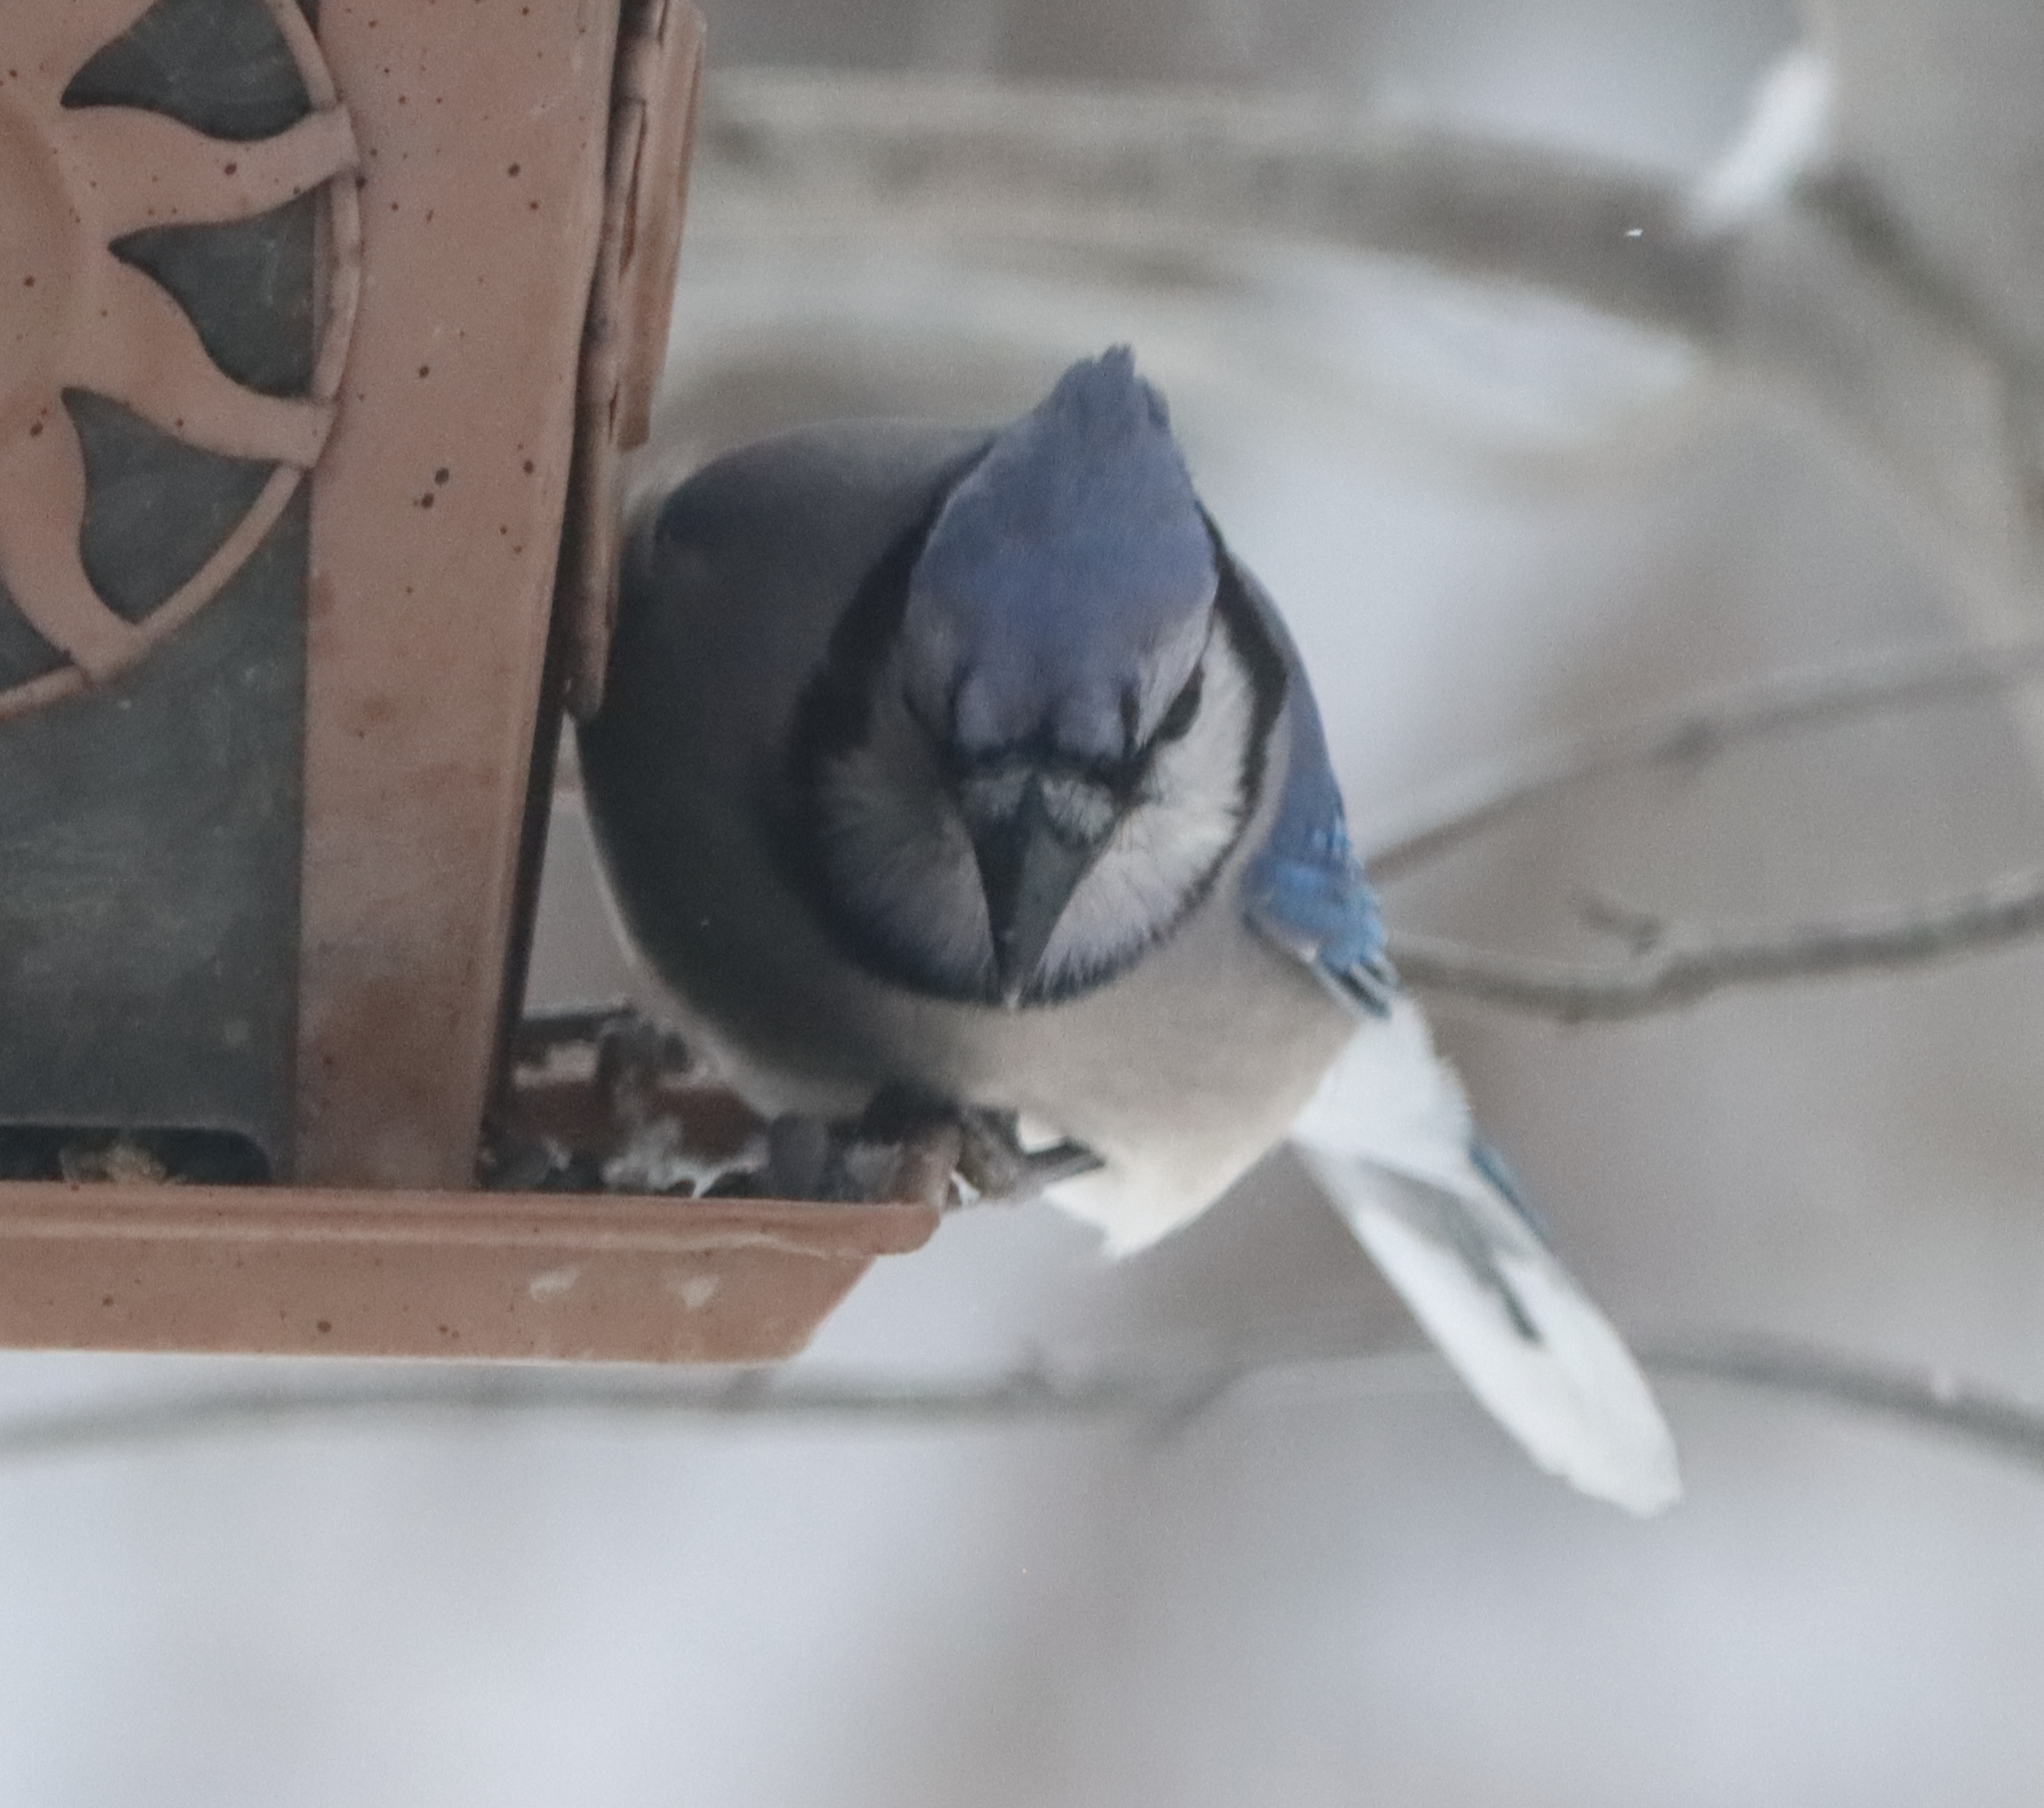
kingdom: Animalia
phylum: Chordata
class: Aves
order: Passeriformes
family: Corvidae
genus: Cyanocitta
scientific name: Cyanocitta cristata
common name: Blue jay
